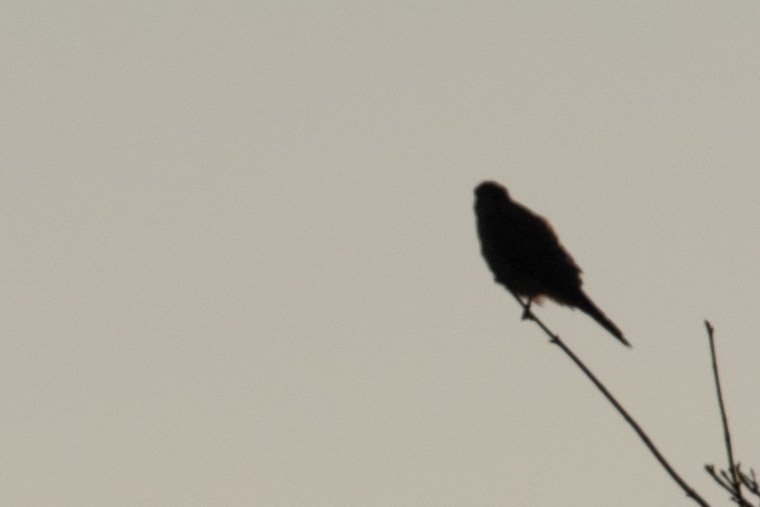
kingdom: Animalia
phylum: Chordata
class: Aves
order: Falconiformes
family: Falconidae
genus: Falco
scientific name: Falco tinnunculus
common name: Common kestrel
